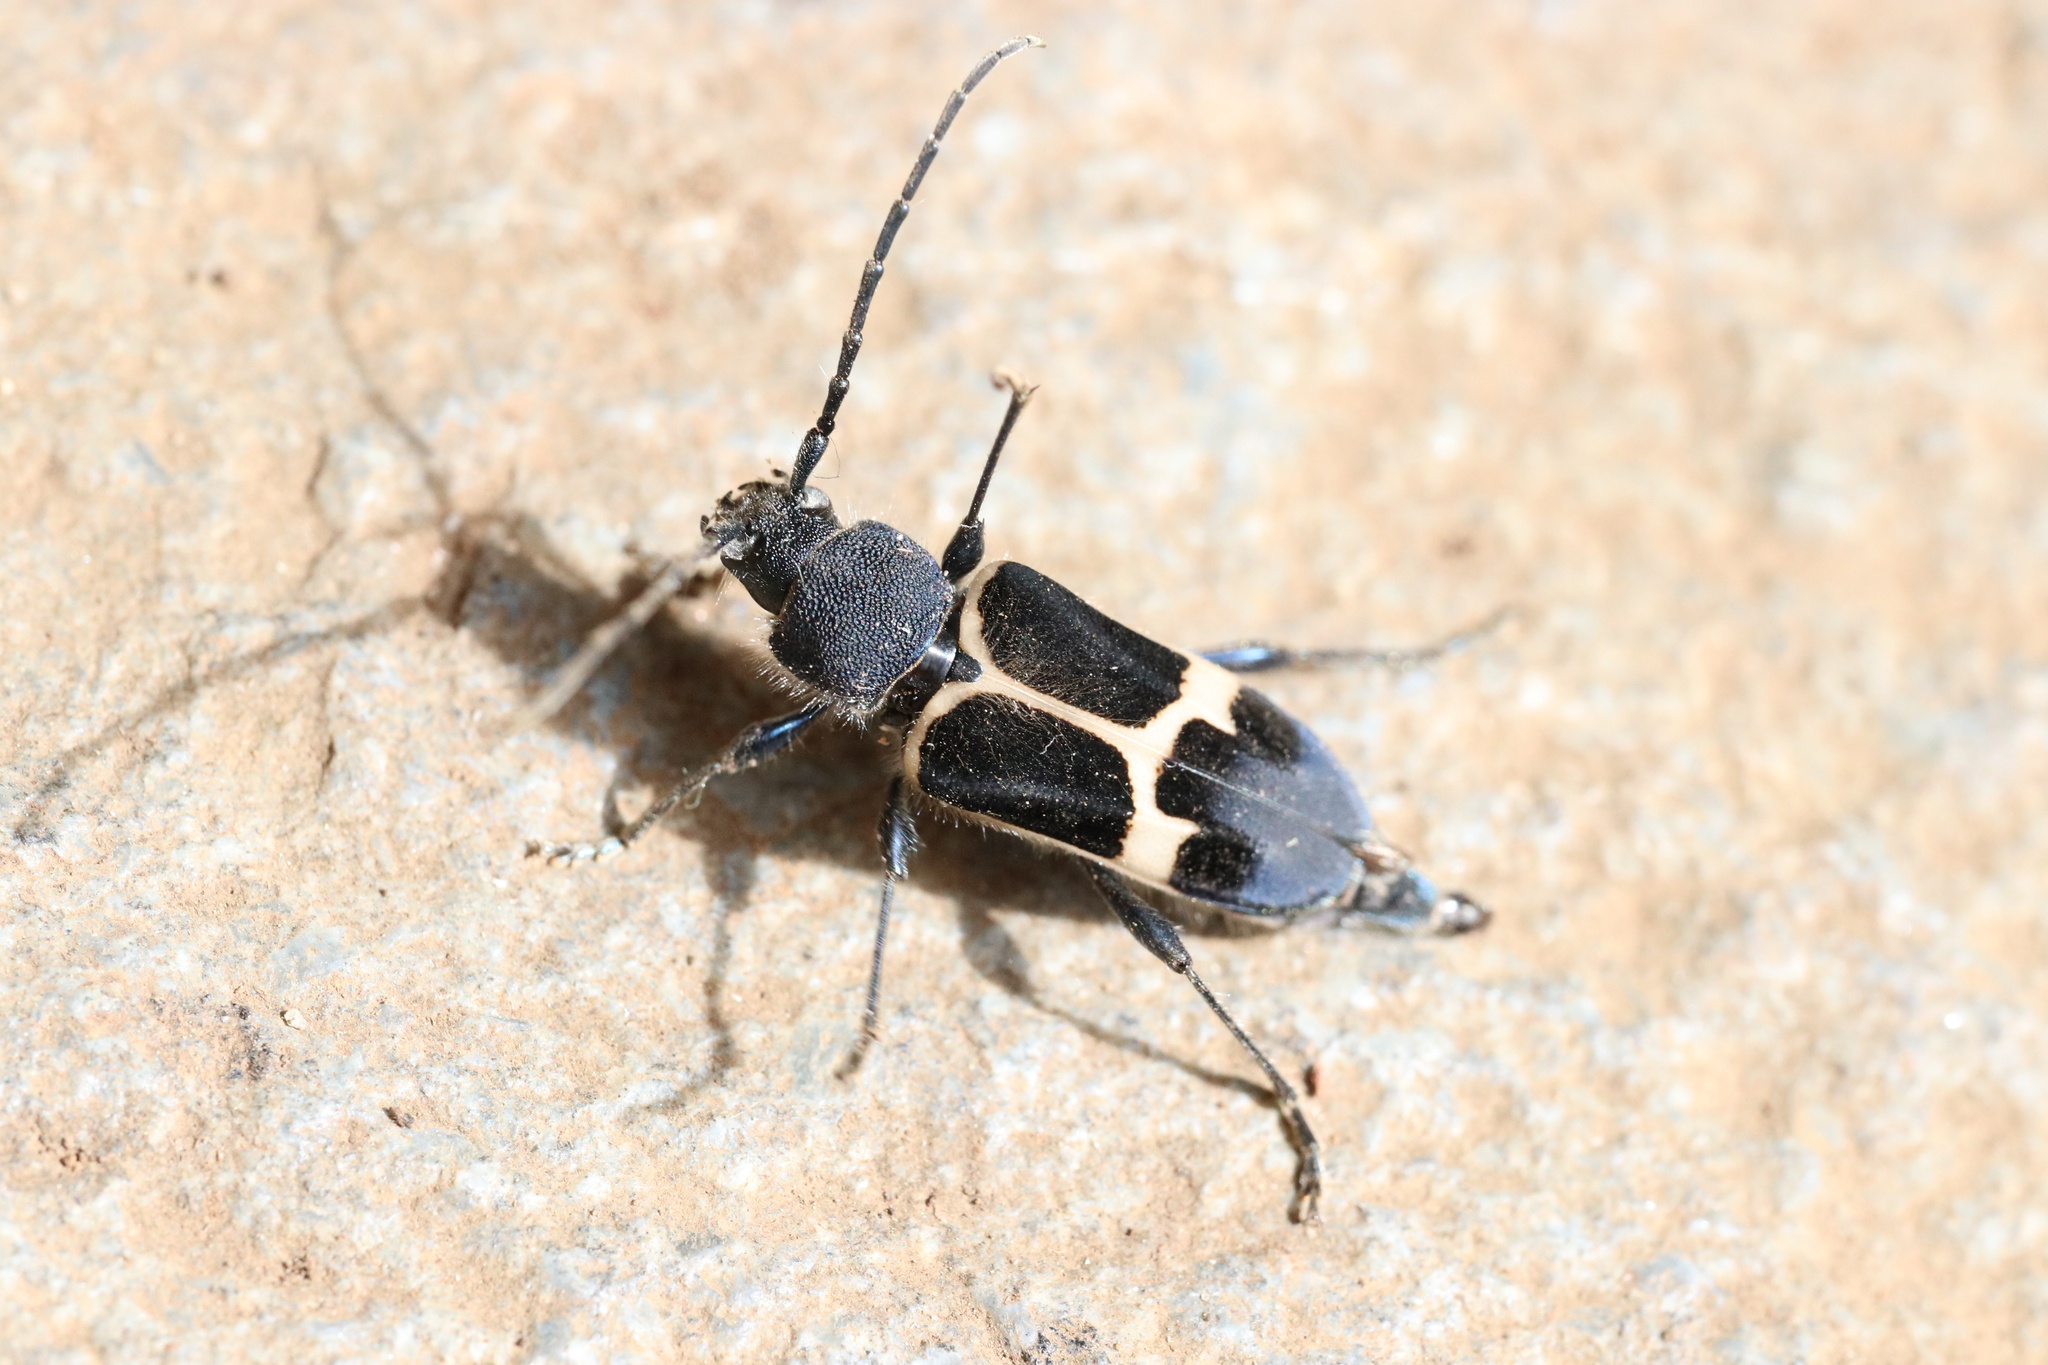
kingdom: Animalia
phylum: Arthropoda
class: Insecta
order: Coleoptera
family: Cerambycidae
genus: Calydon
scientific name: Calydon submetallicum
